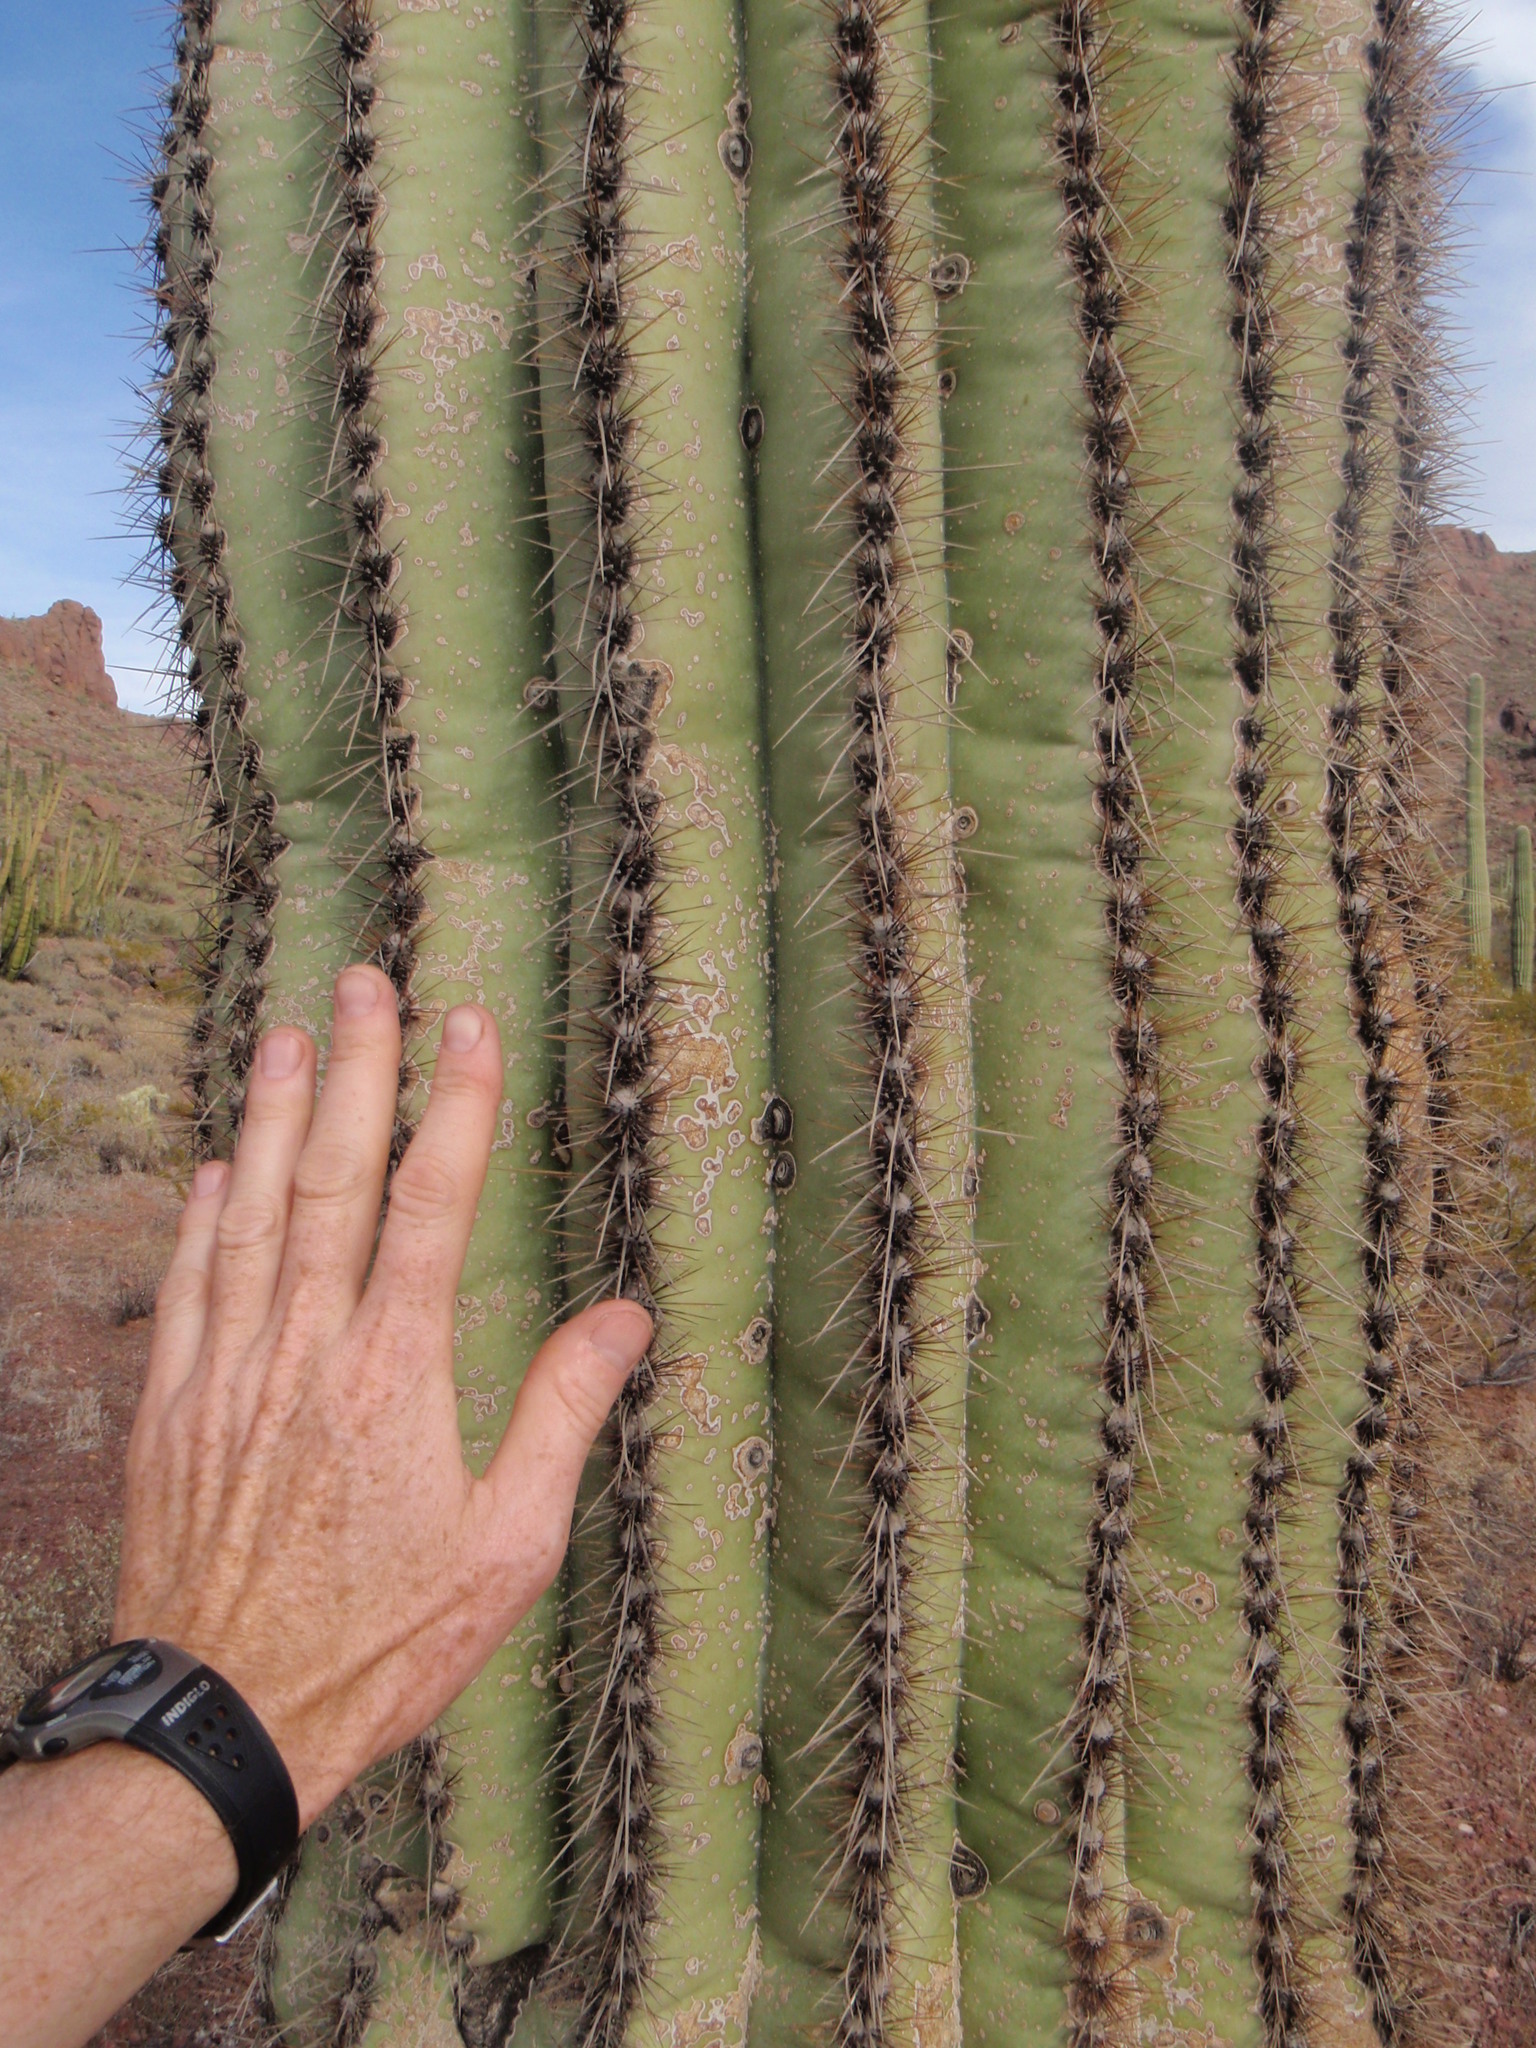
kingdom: Plantae
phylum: Tracheophyta
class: Magnoliopsida
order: Caryophyllales
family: Cactaceae
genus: Carnegiea
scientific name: Carnegiea gigantea
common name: Saguaro
